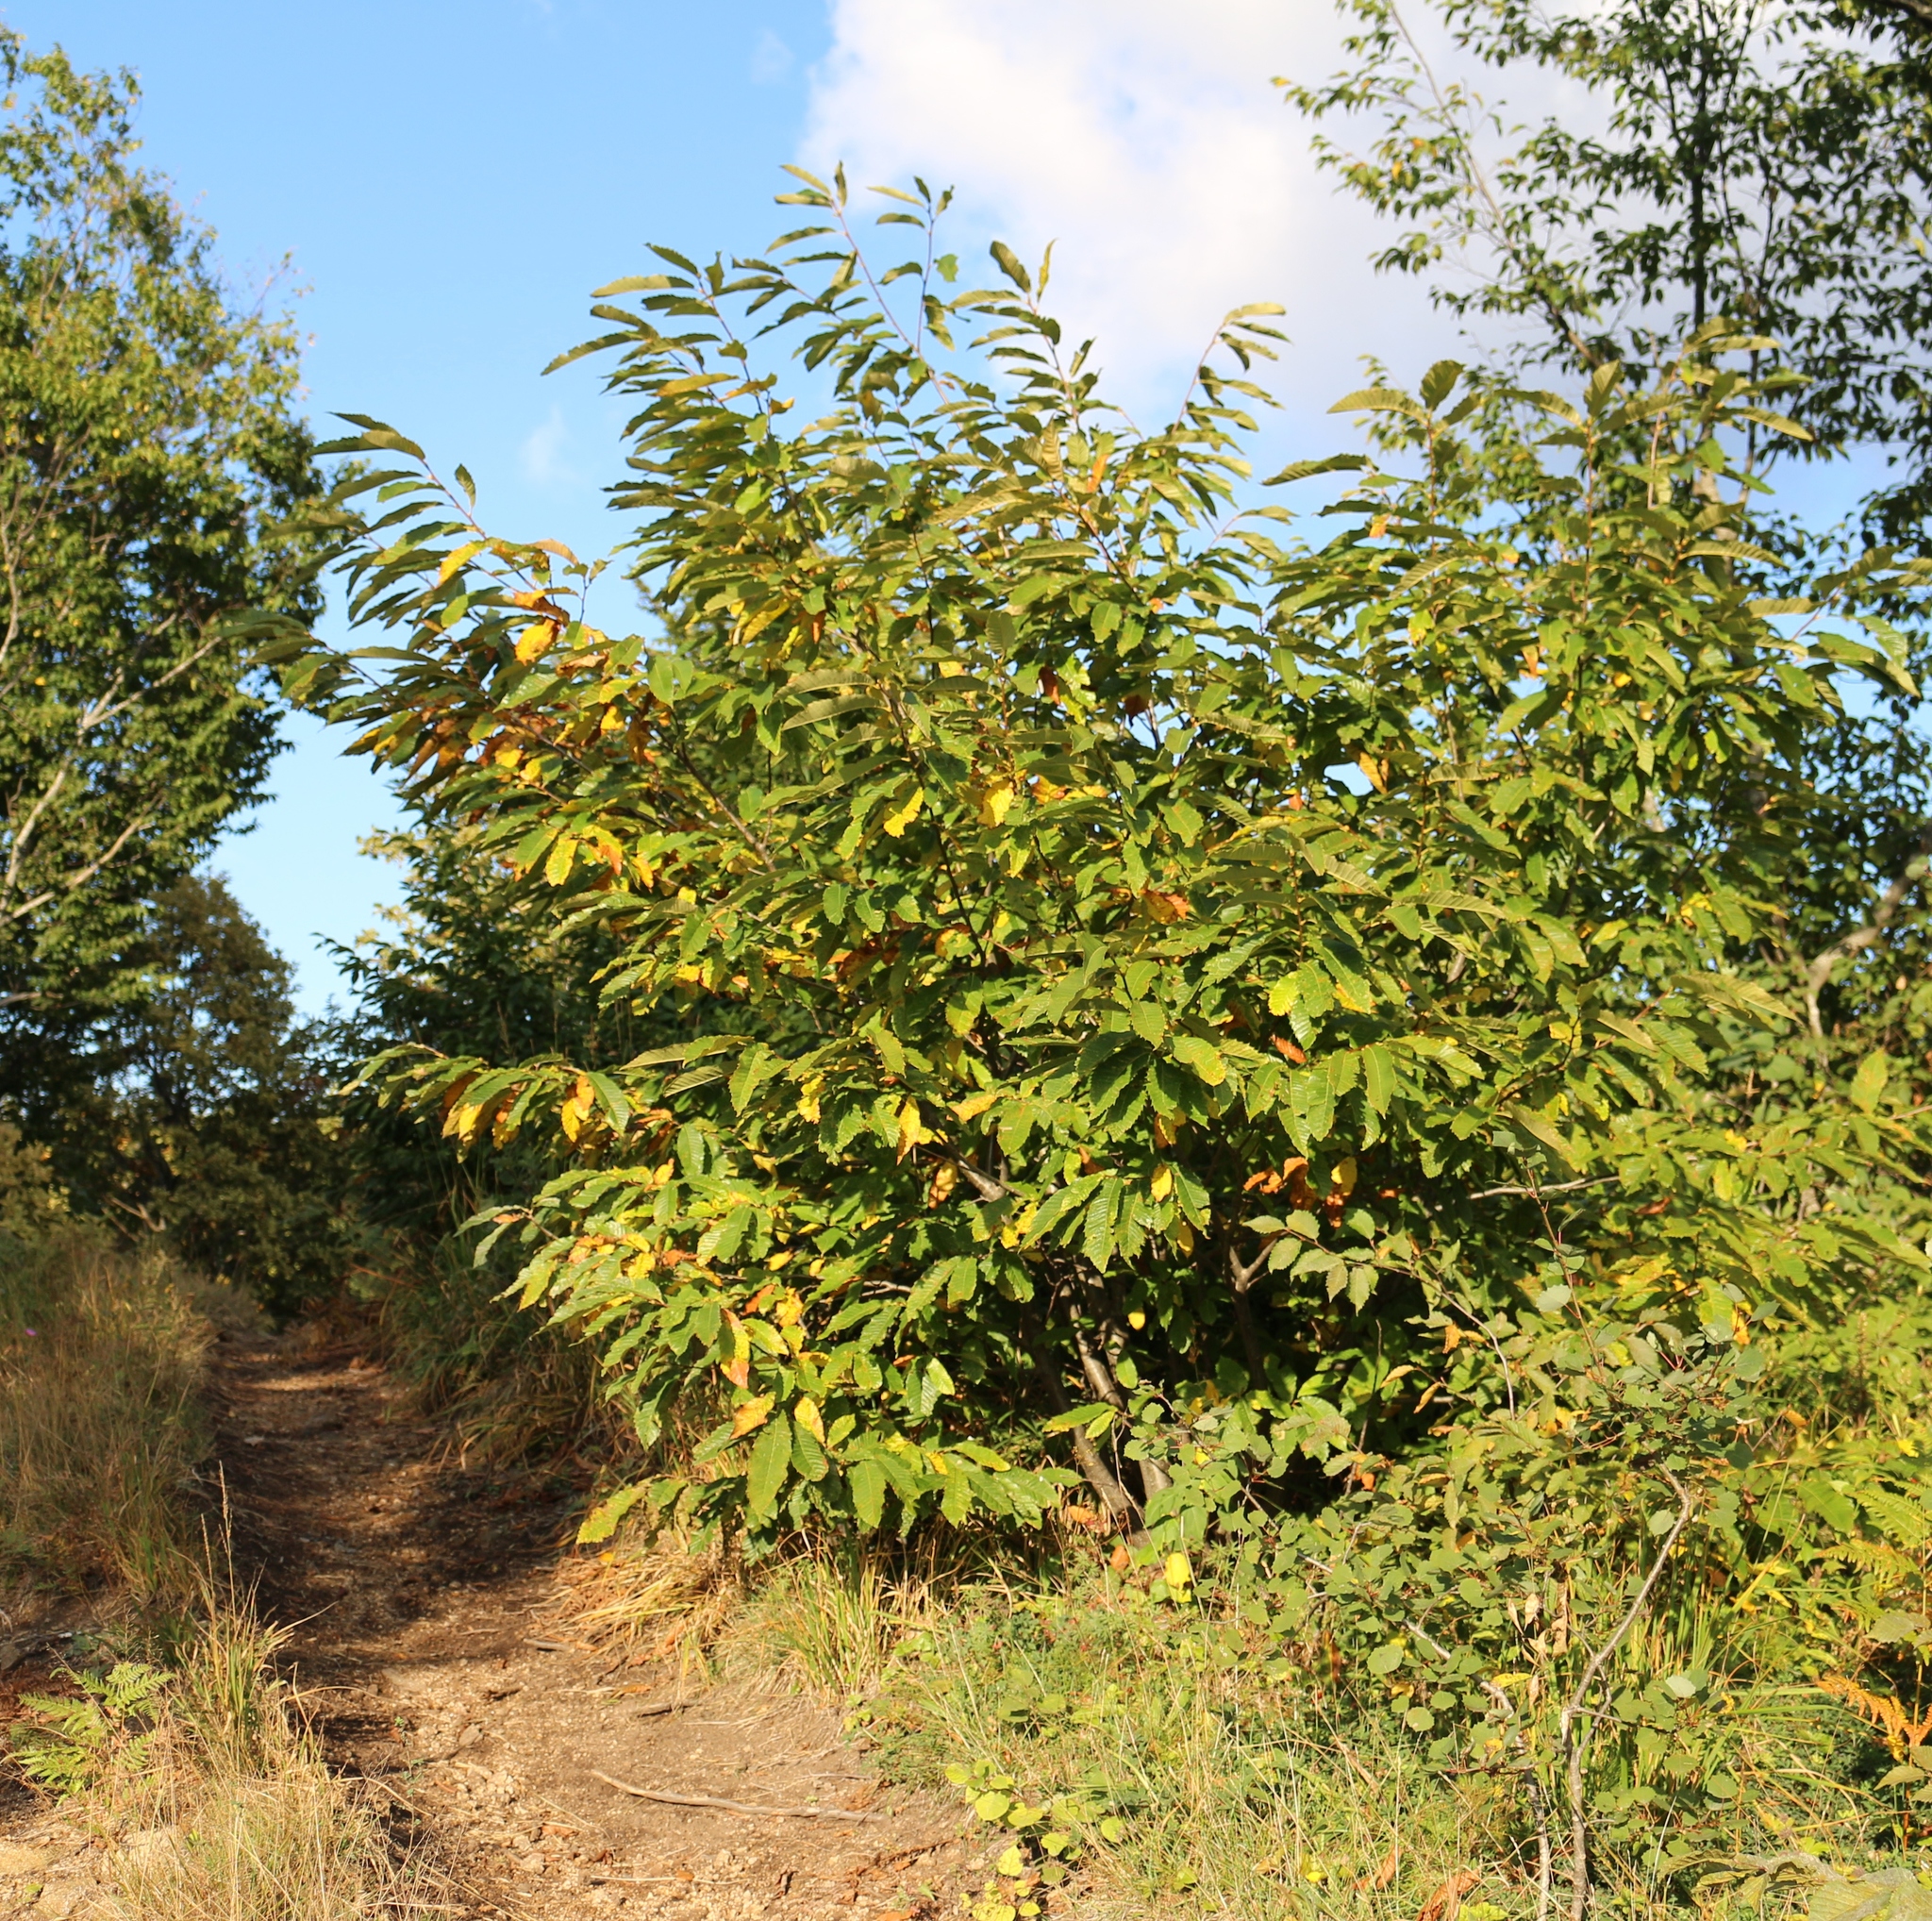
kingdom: Plantae
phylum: Tracheophyta
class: Magnoliopsida
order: Fagales
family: Fagaceae
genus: Castanea
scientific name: Castanea sativa
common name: Sweet chestnut
